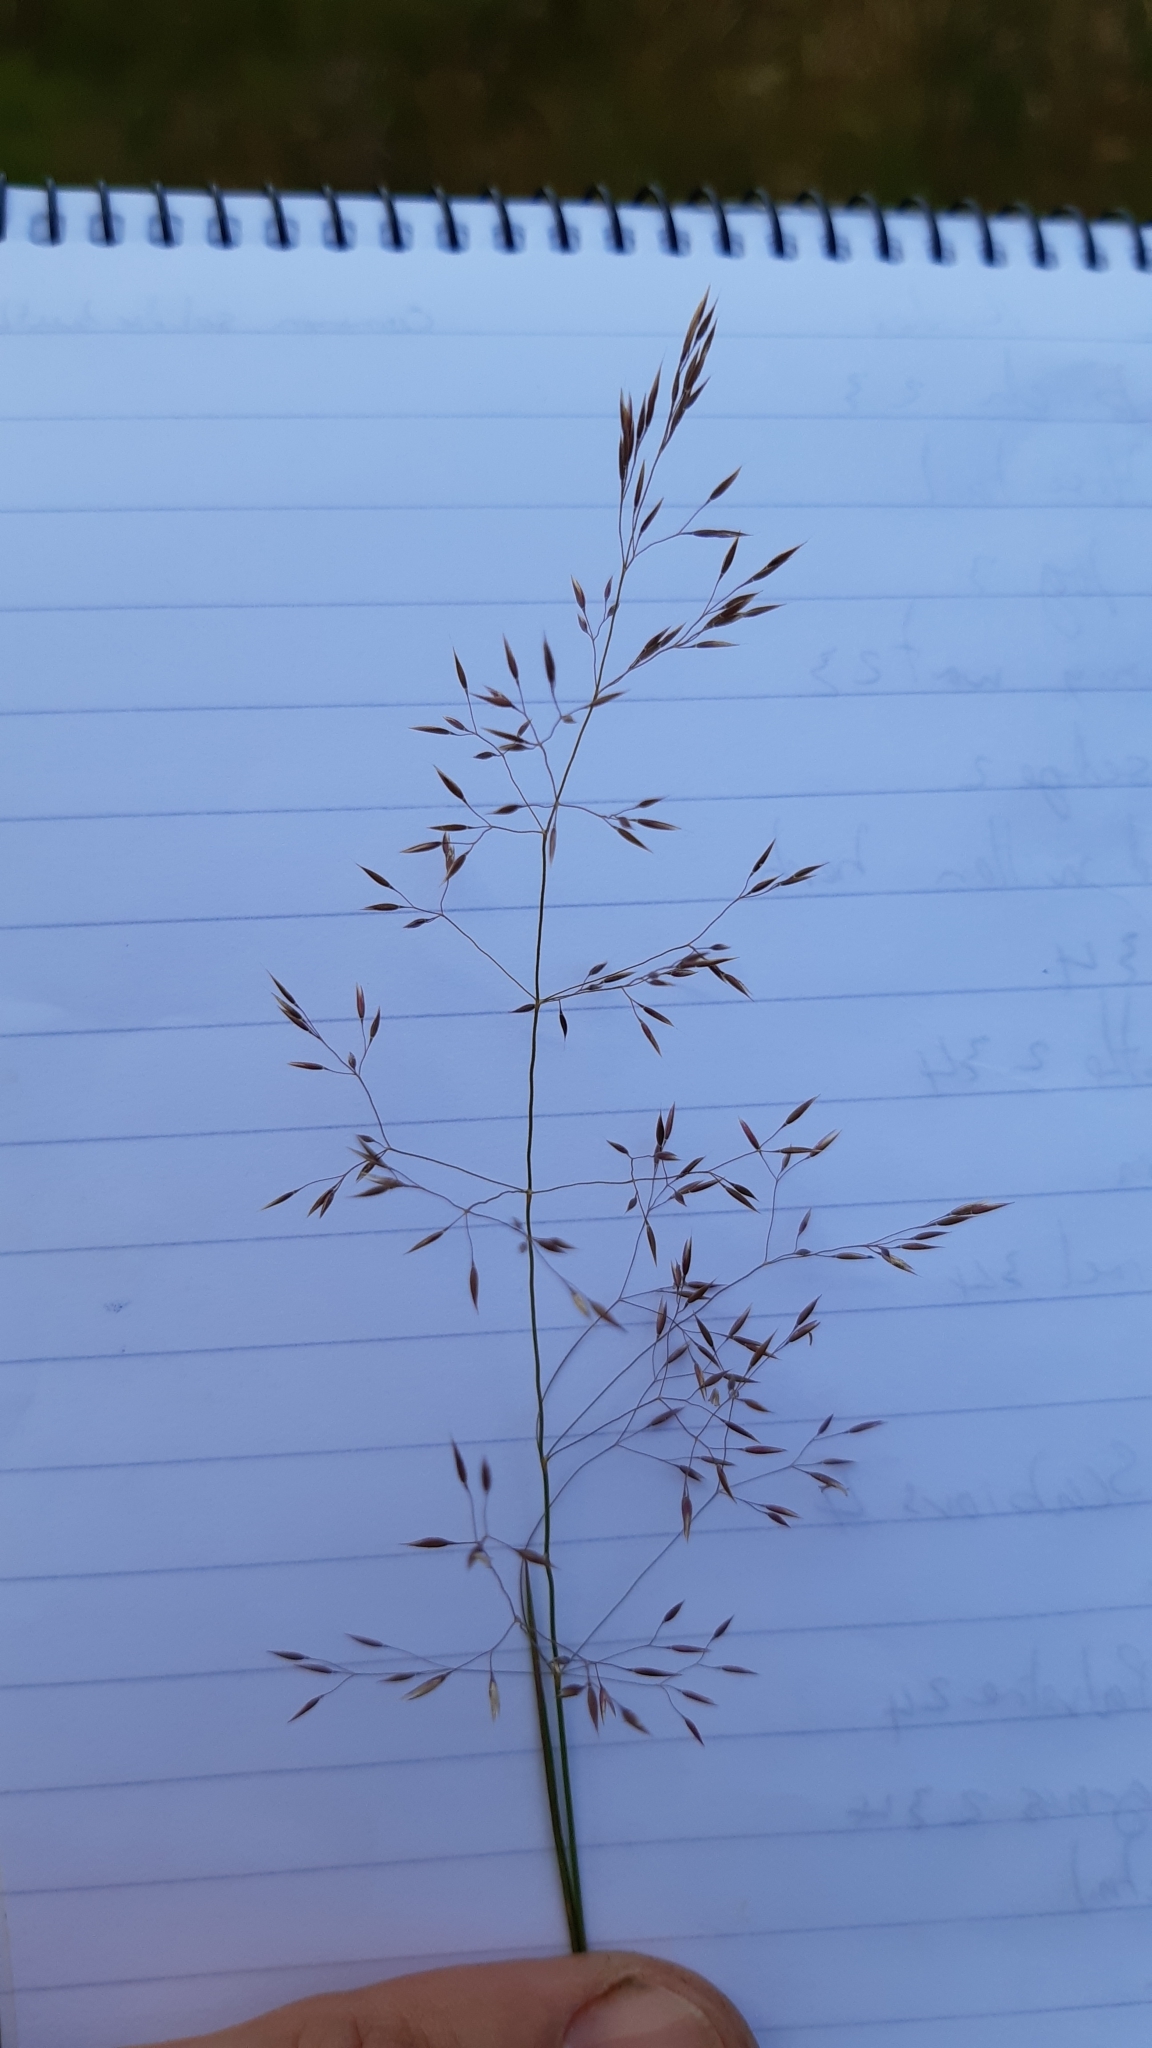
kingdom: Plantae
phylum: Tracheophyta
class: Liliopsida
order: Poales
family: Poaceae
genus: Agrostis
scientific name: Agrostis capillaris
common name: Colonial bentgrass
